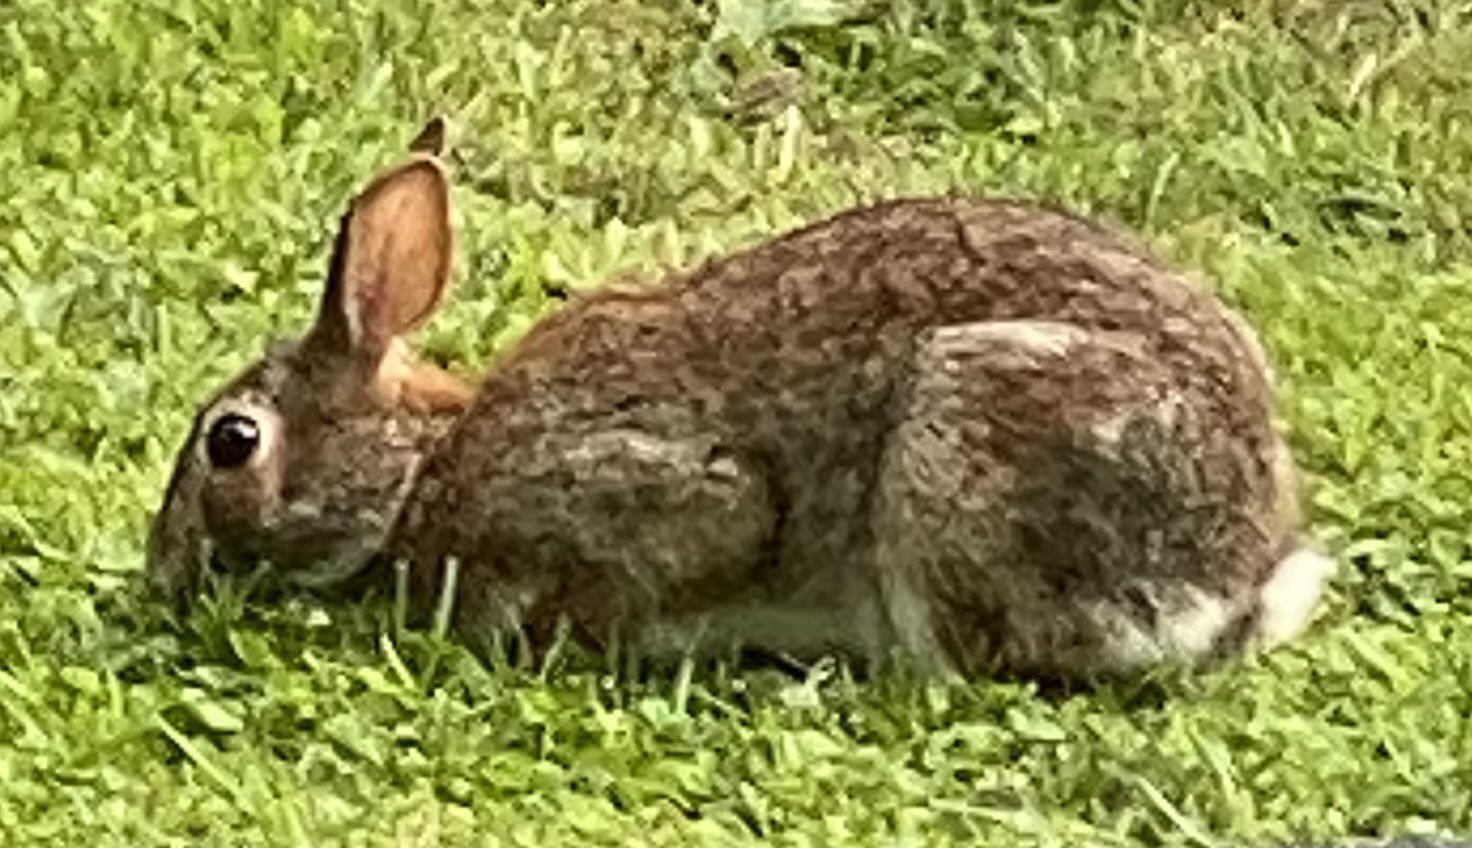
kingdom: Animalia
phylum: Chordata
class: Mammalia
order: Lagomorpha
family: Leporidae
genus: Sylvilagus
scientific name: Sylvilagus floridanus
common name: Eastern cottontail
